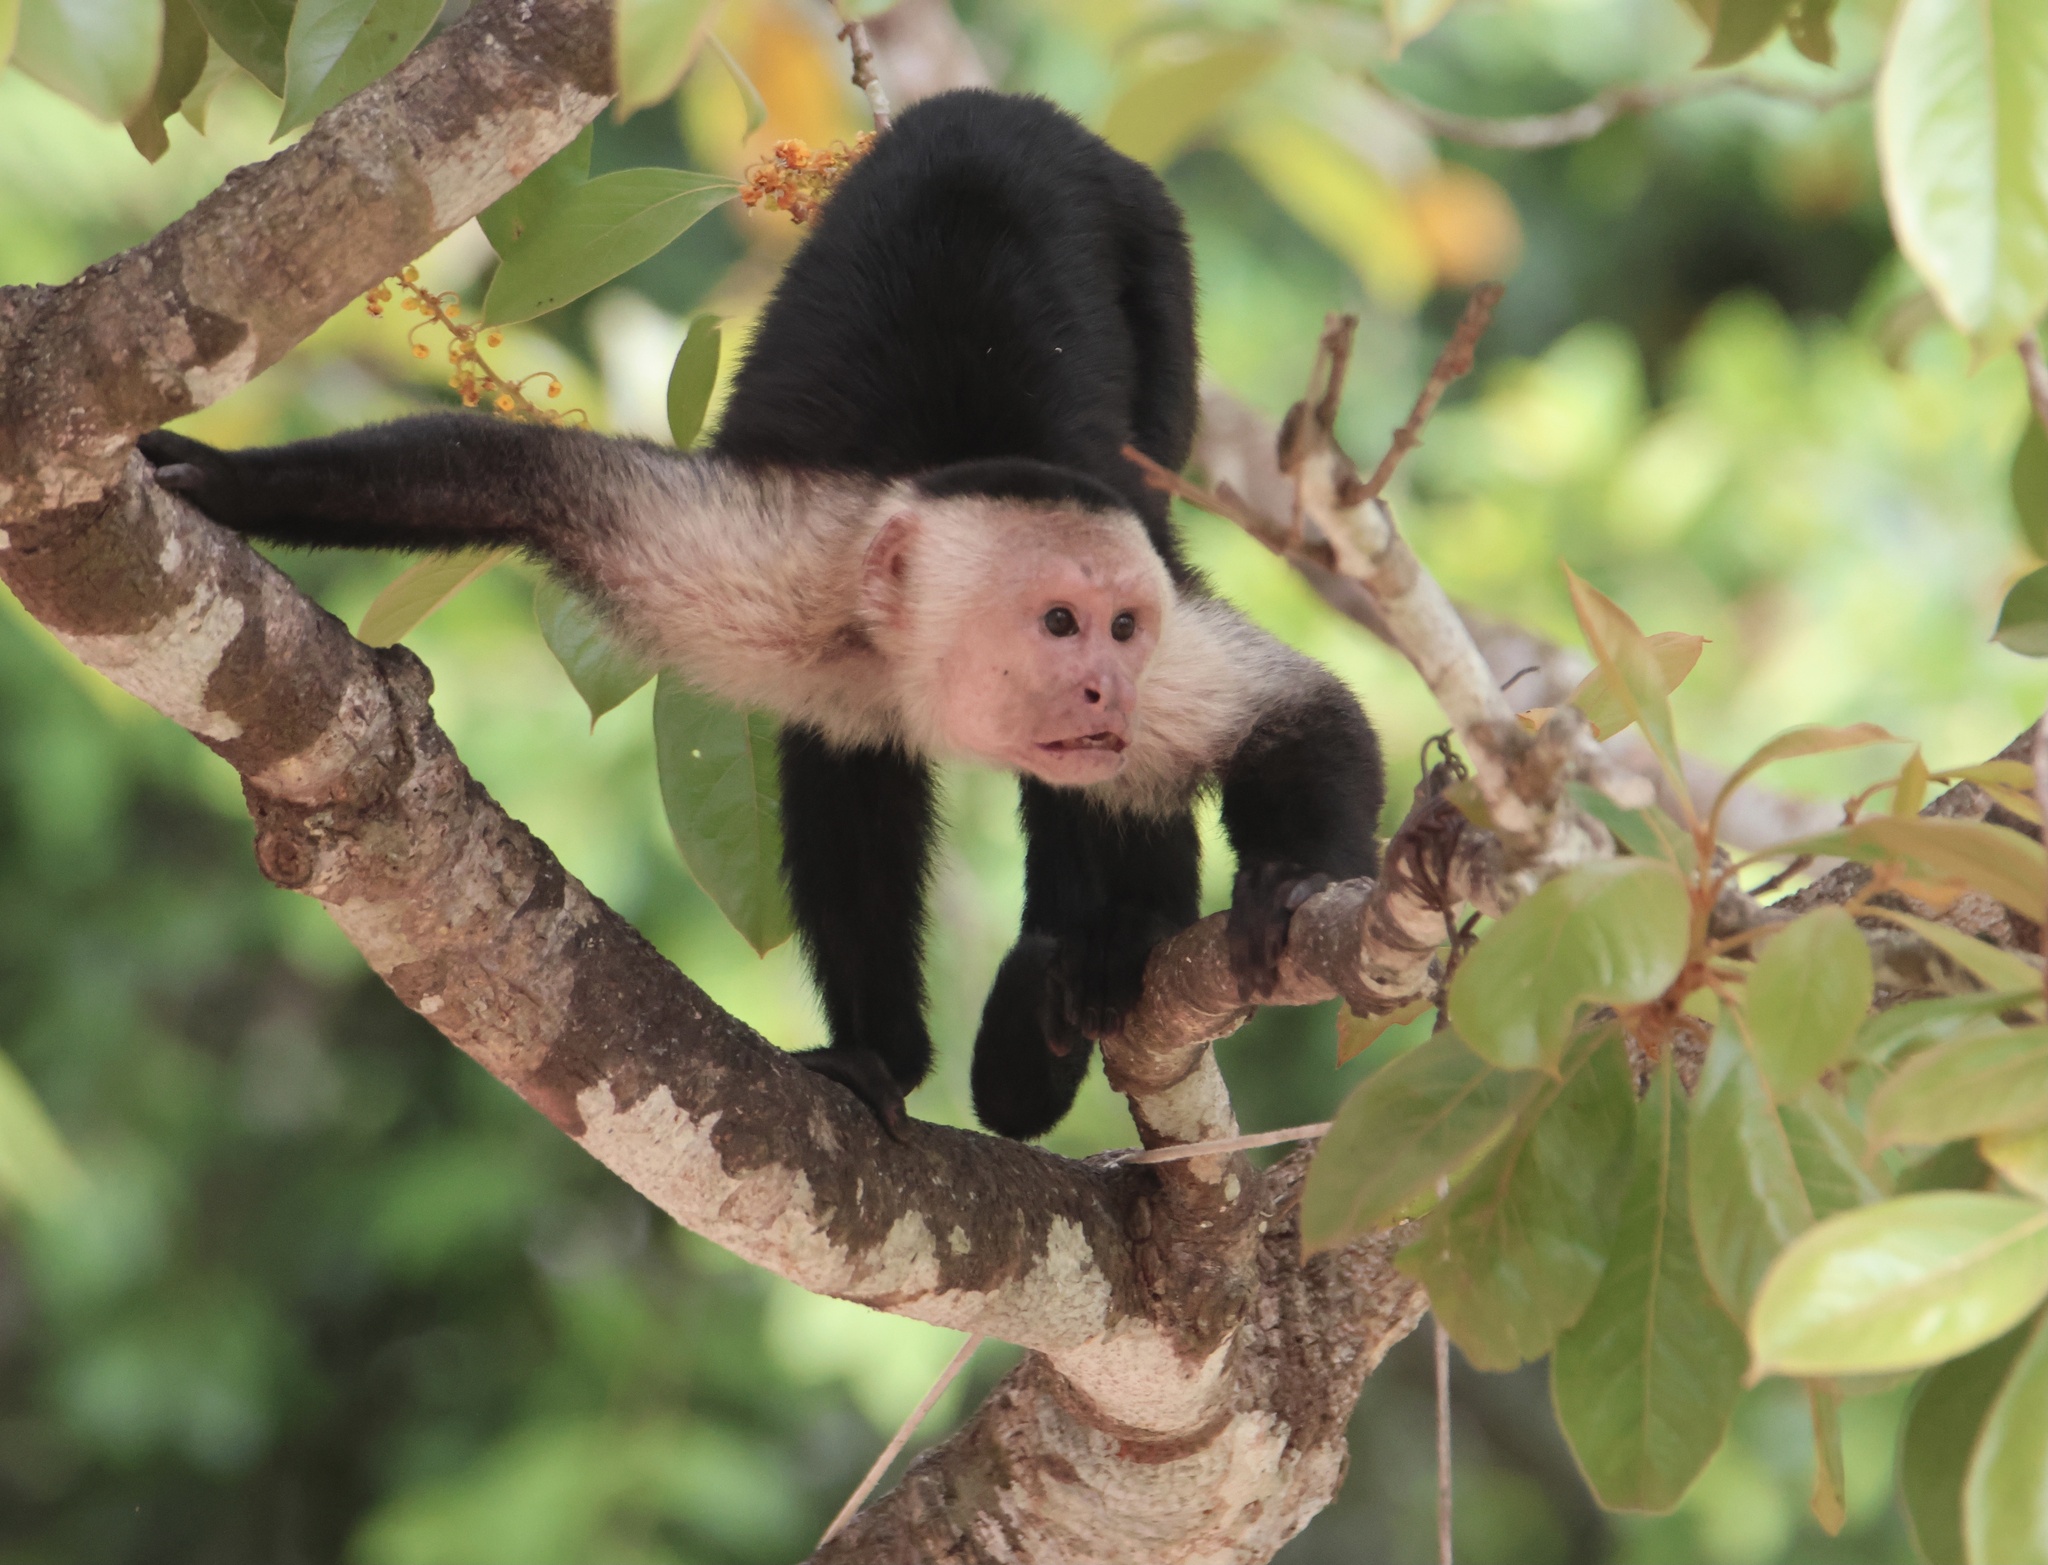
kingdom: Animalia
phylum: Chordata
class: Mammalia
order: Primates
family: Cebidae
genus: Cebus
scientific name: Cebus capucinus
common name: White-headed capuchin
